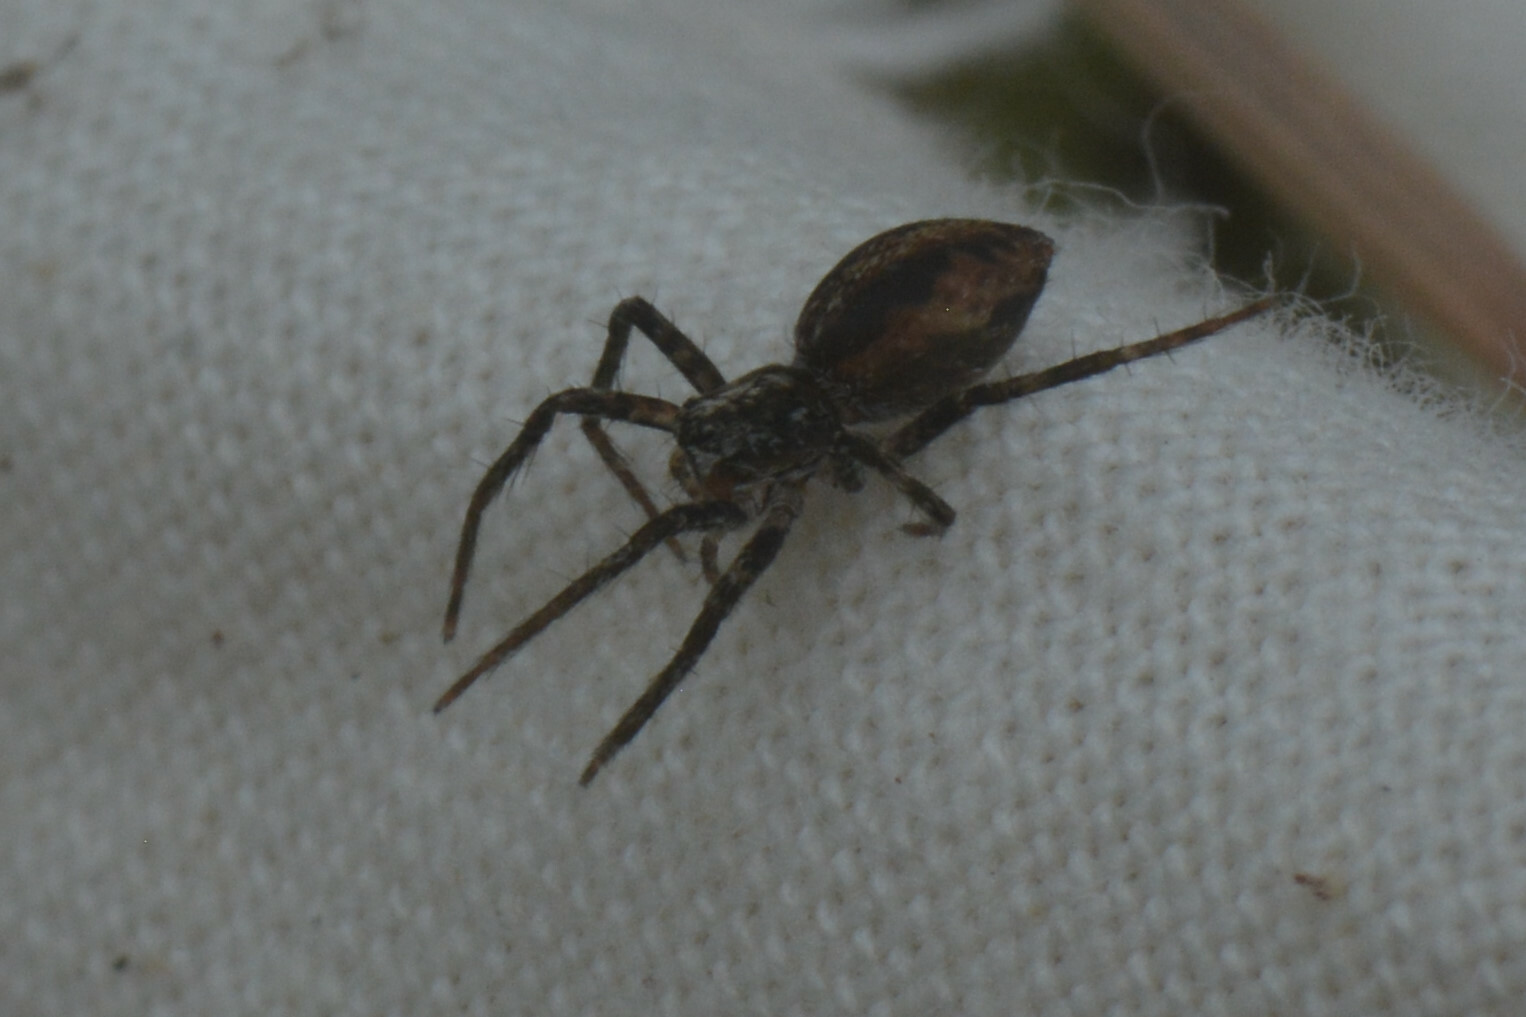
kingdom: Animalia
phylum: Arthropoda
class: Arachnida
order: Araneae
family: Pisauridae
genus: Pisaura
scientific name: Pisaura mirabilis
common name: Tent spider
